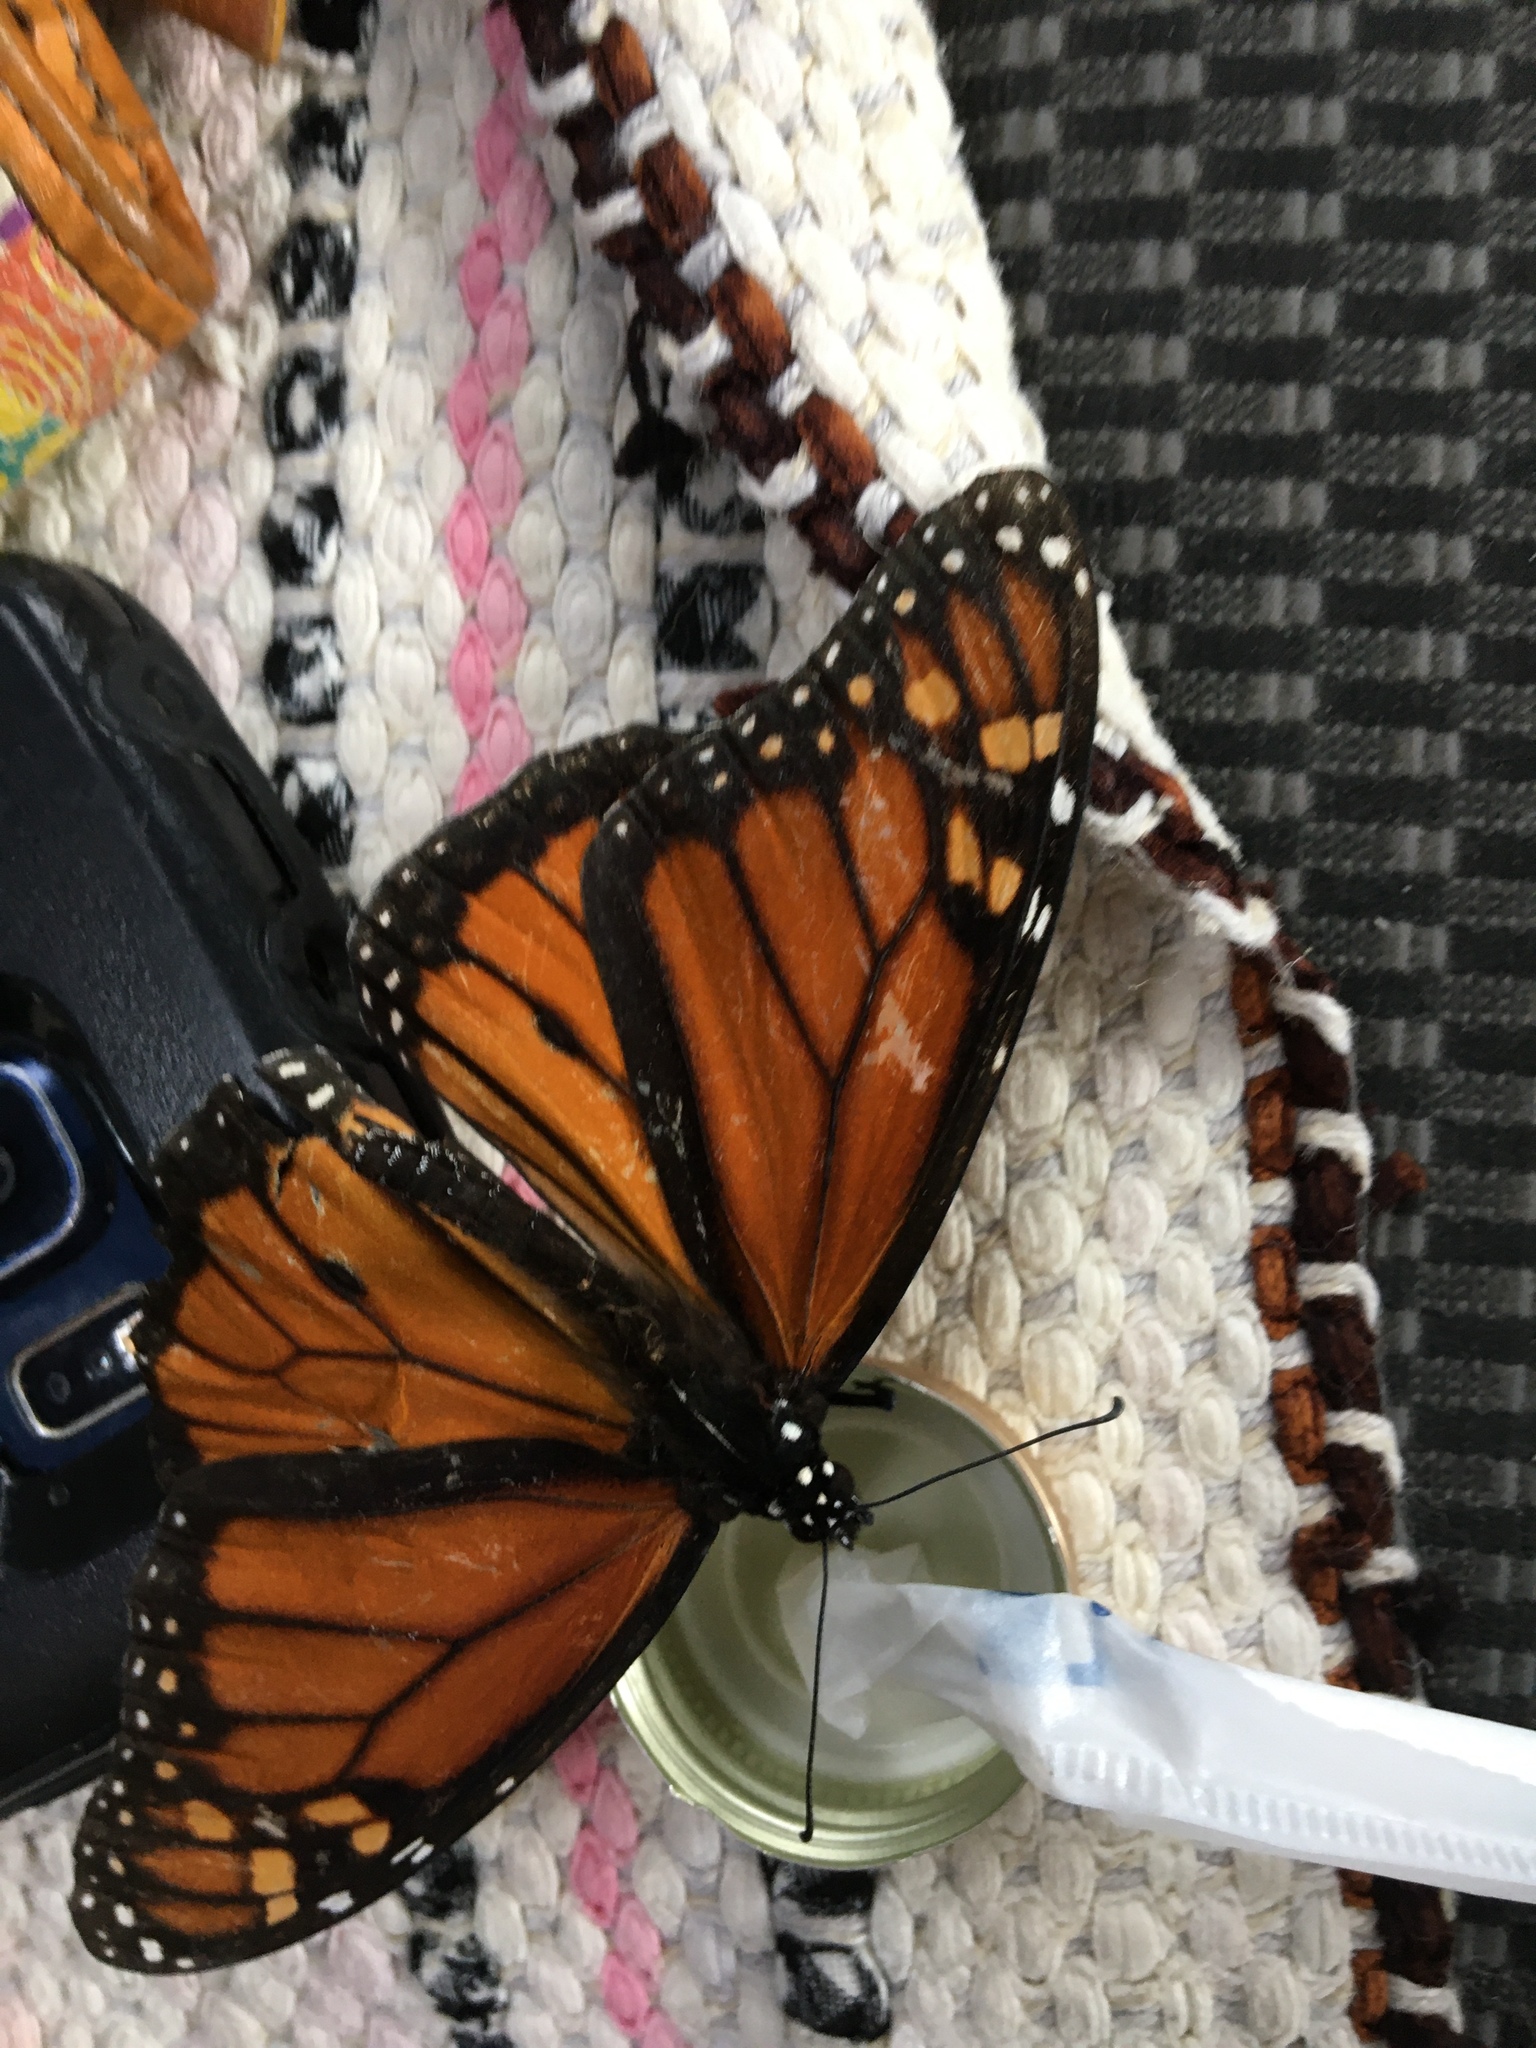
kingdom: Animalia
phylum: Arthropoda
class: Insecta
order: Lepidoptera
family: Nymphalidae
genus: Danaus
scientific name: Danaus plexippus
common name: Monarch
